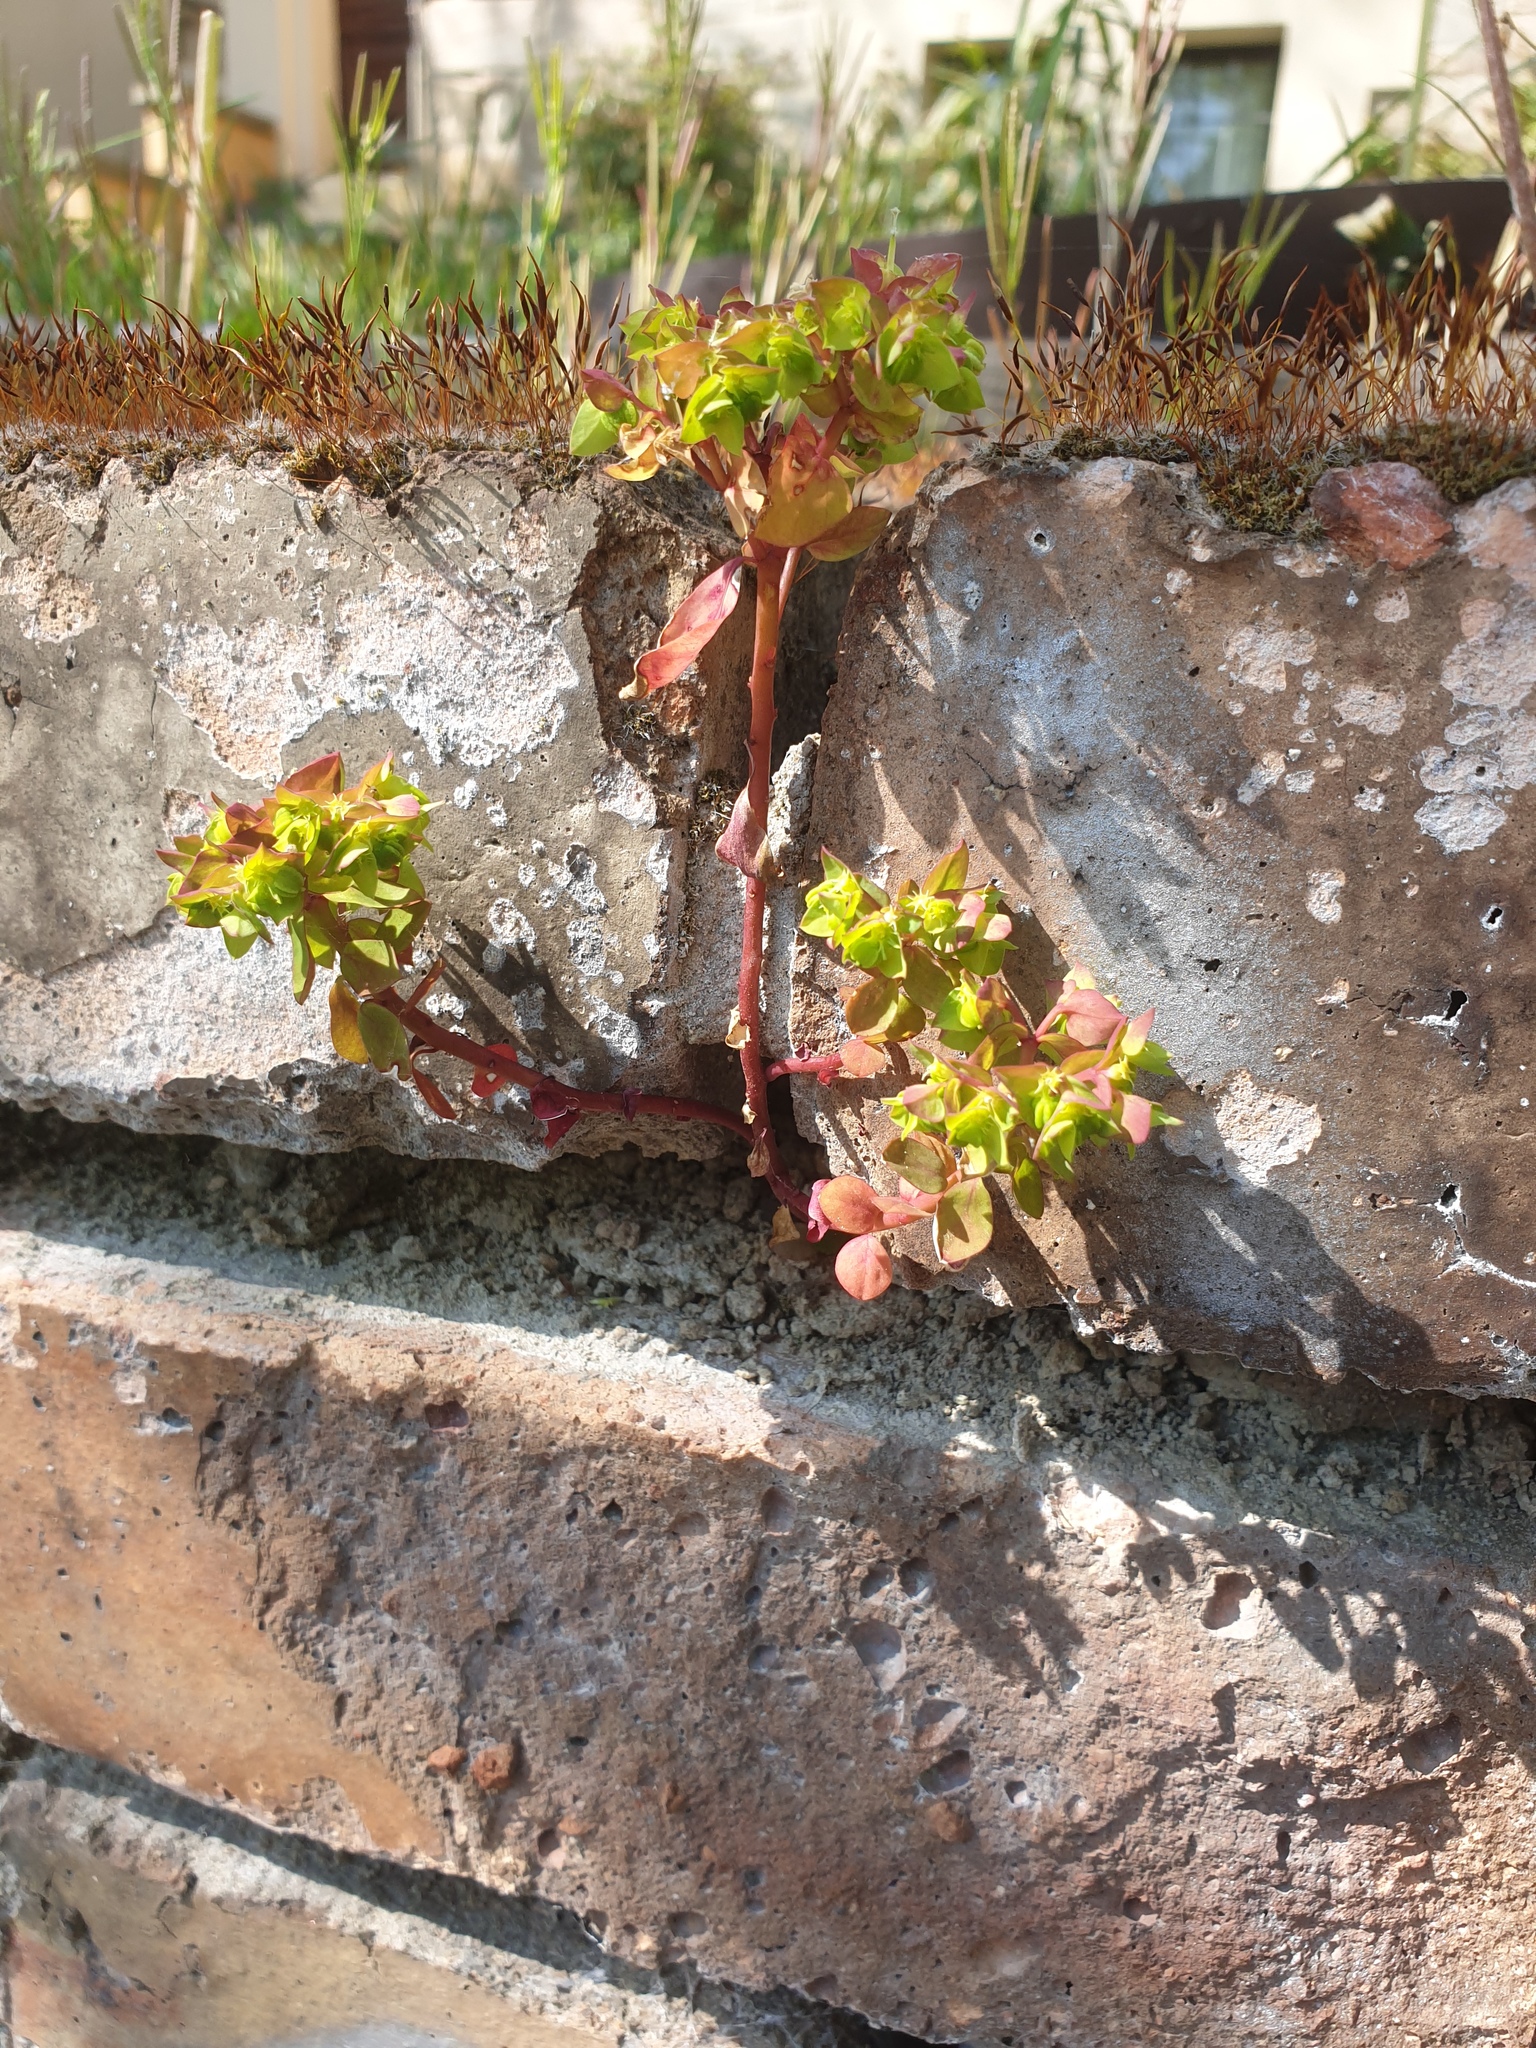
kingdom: Plantae
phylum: Tracheophyta
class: Magnoliopsida
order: Malpighiales
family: Euphorbiaceae
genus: Euphorbia
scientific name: Euphorbia peplus
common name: Petty spurge
